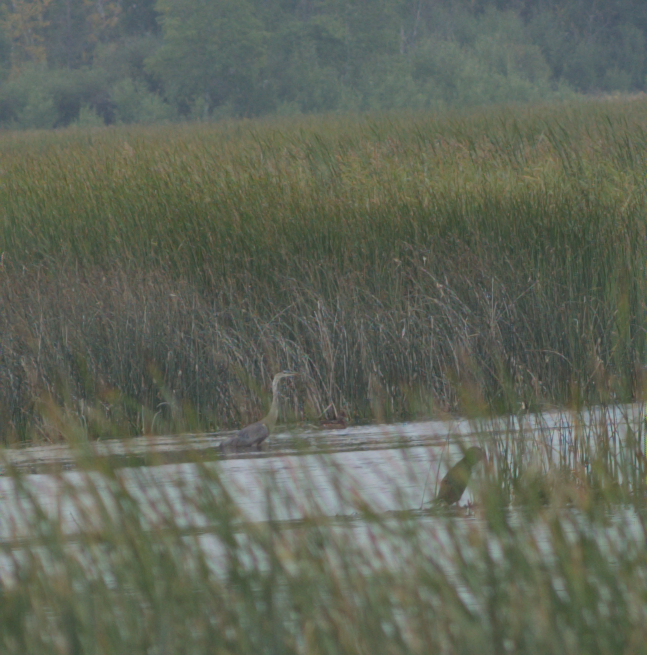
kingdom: Animalia
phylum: Chordata
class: Aves
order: Pelecaniformes
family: Ardeidae
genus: Ardea
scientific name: Ardea herodias
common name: Great blue heron
